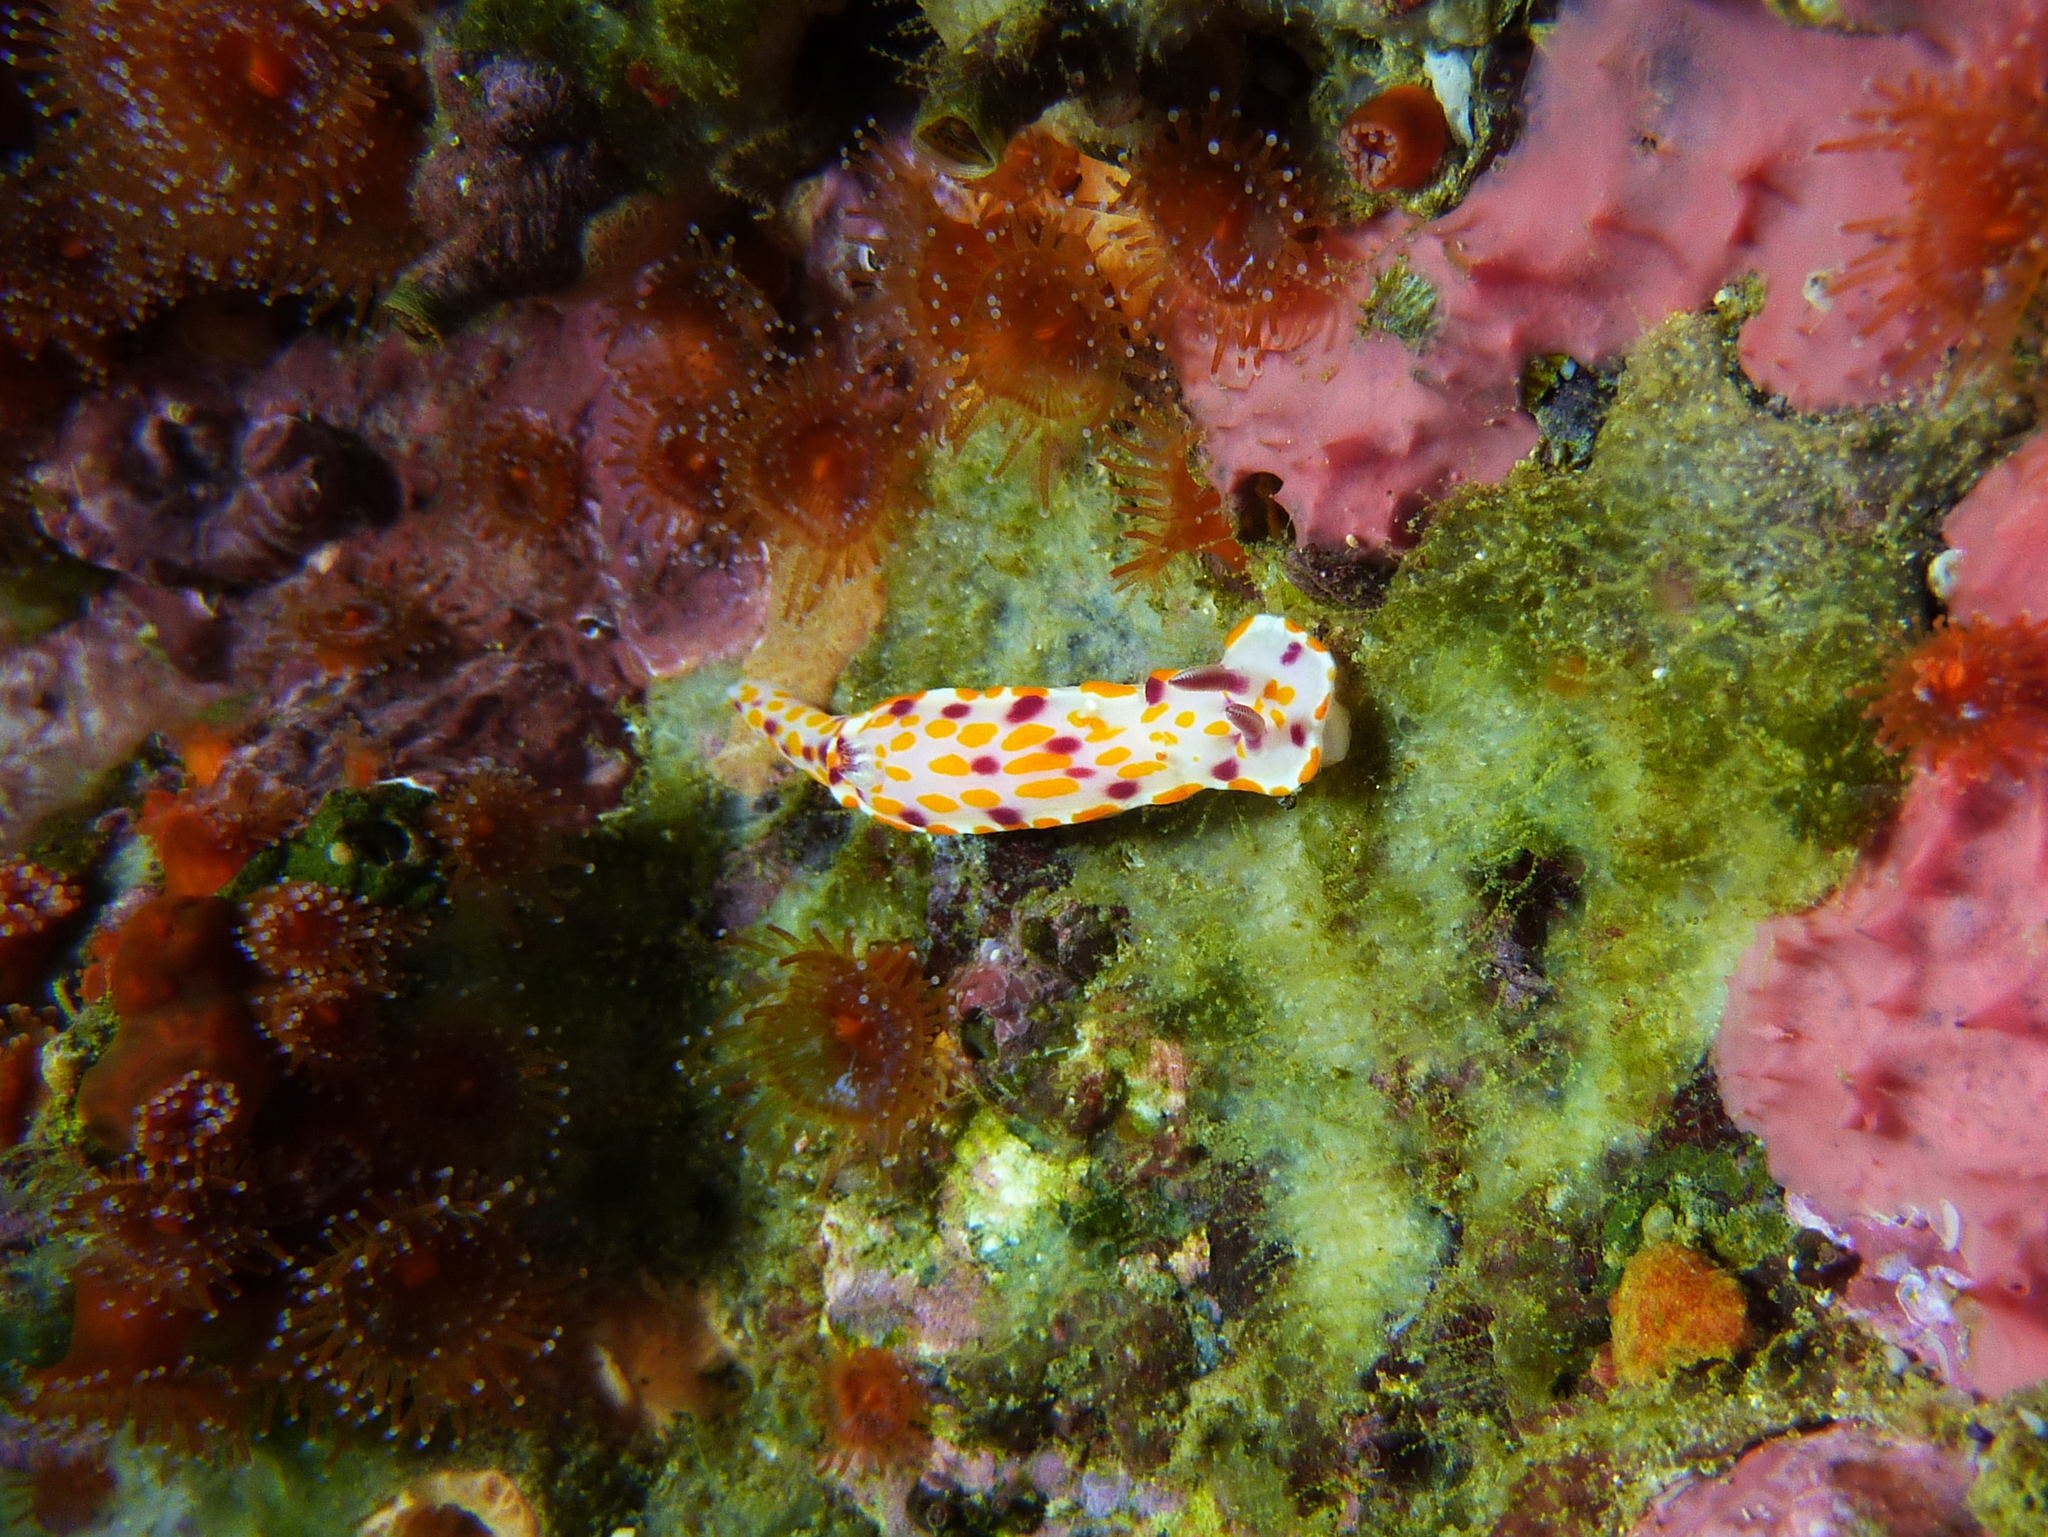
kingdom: Animalia
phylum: Mollusca
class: Gastropoda
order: Nudibranchia
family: Chromodorididae
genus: Ceratosoma
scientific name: Ceratosoma amoenum
